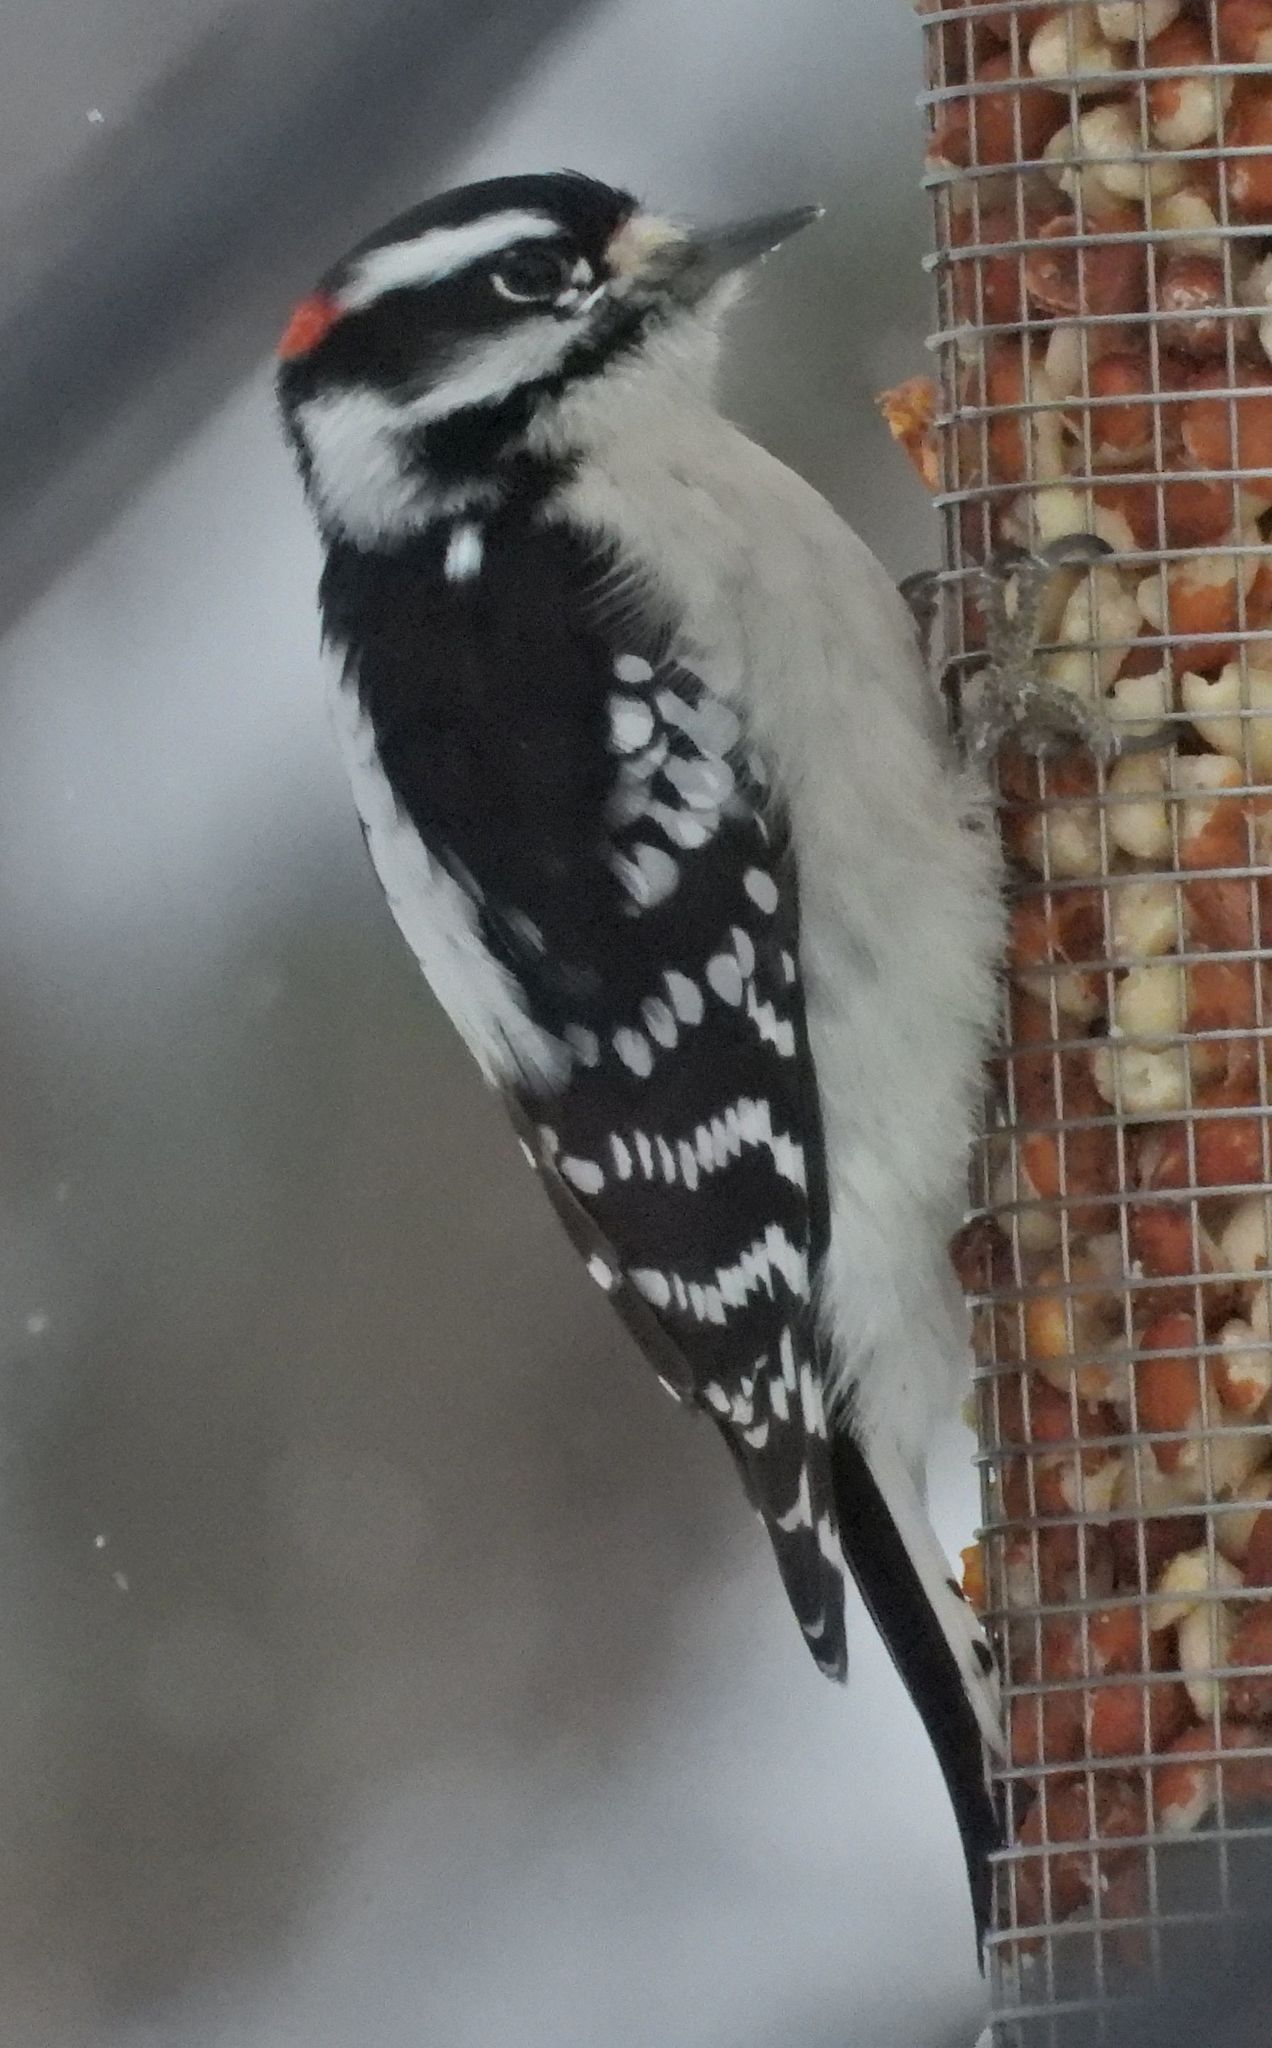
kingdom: Animalia
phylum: Chordata
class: Aves
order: Piciformes
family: Picidae
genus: Dryobates
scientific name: Dryobates pubescens
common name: Downy woodpecker
